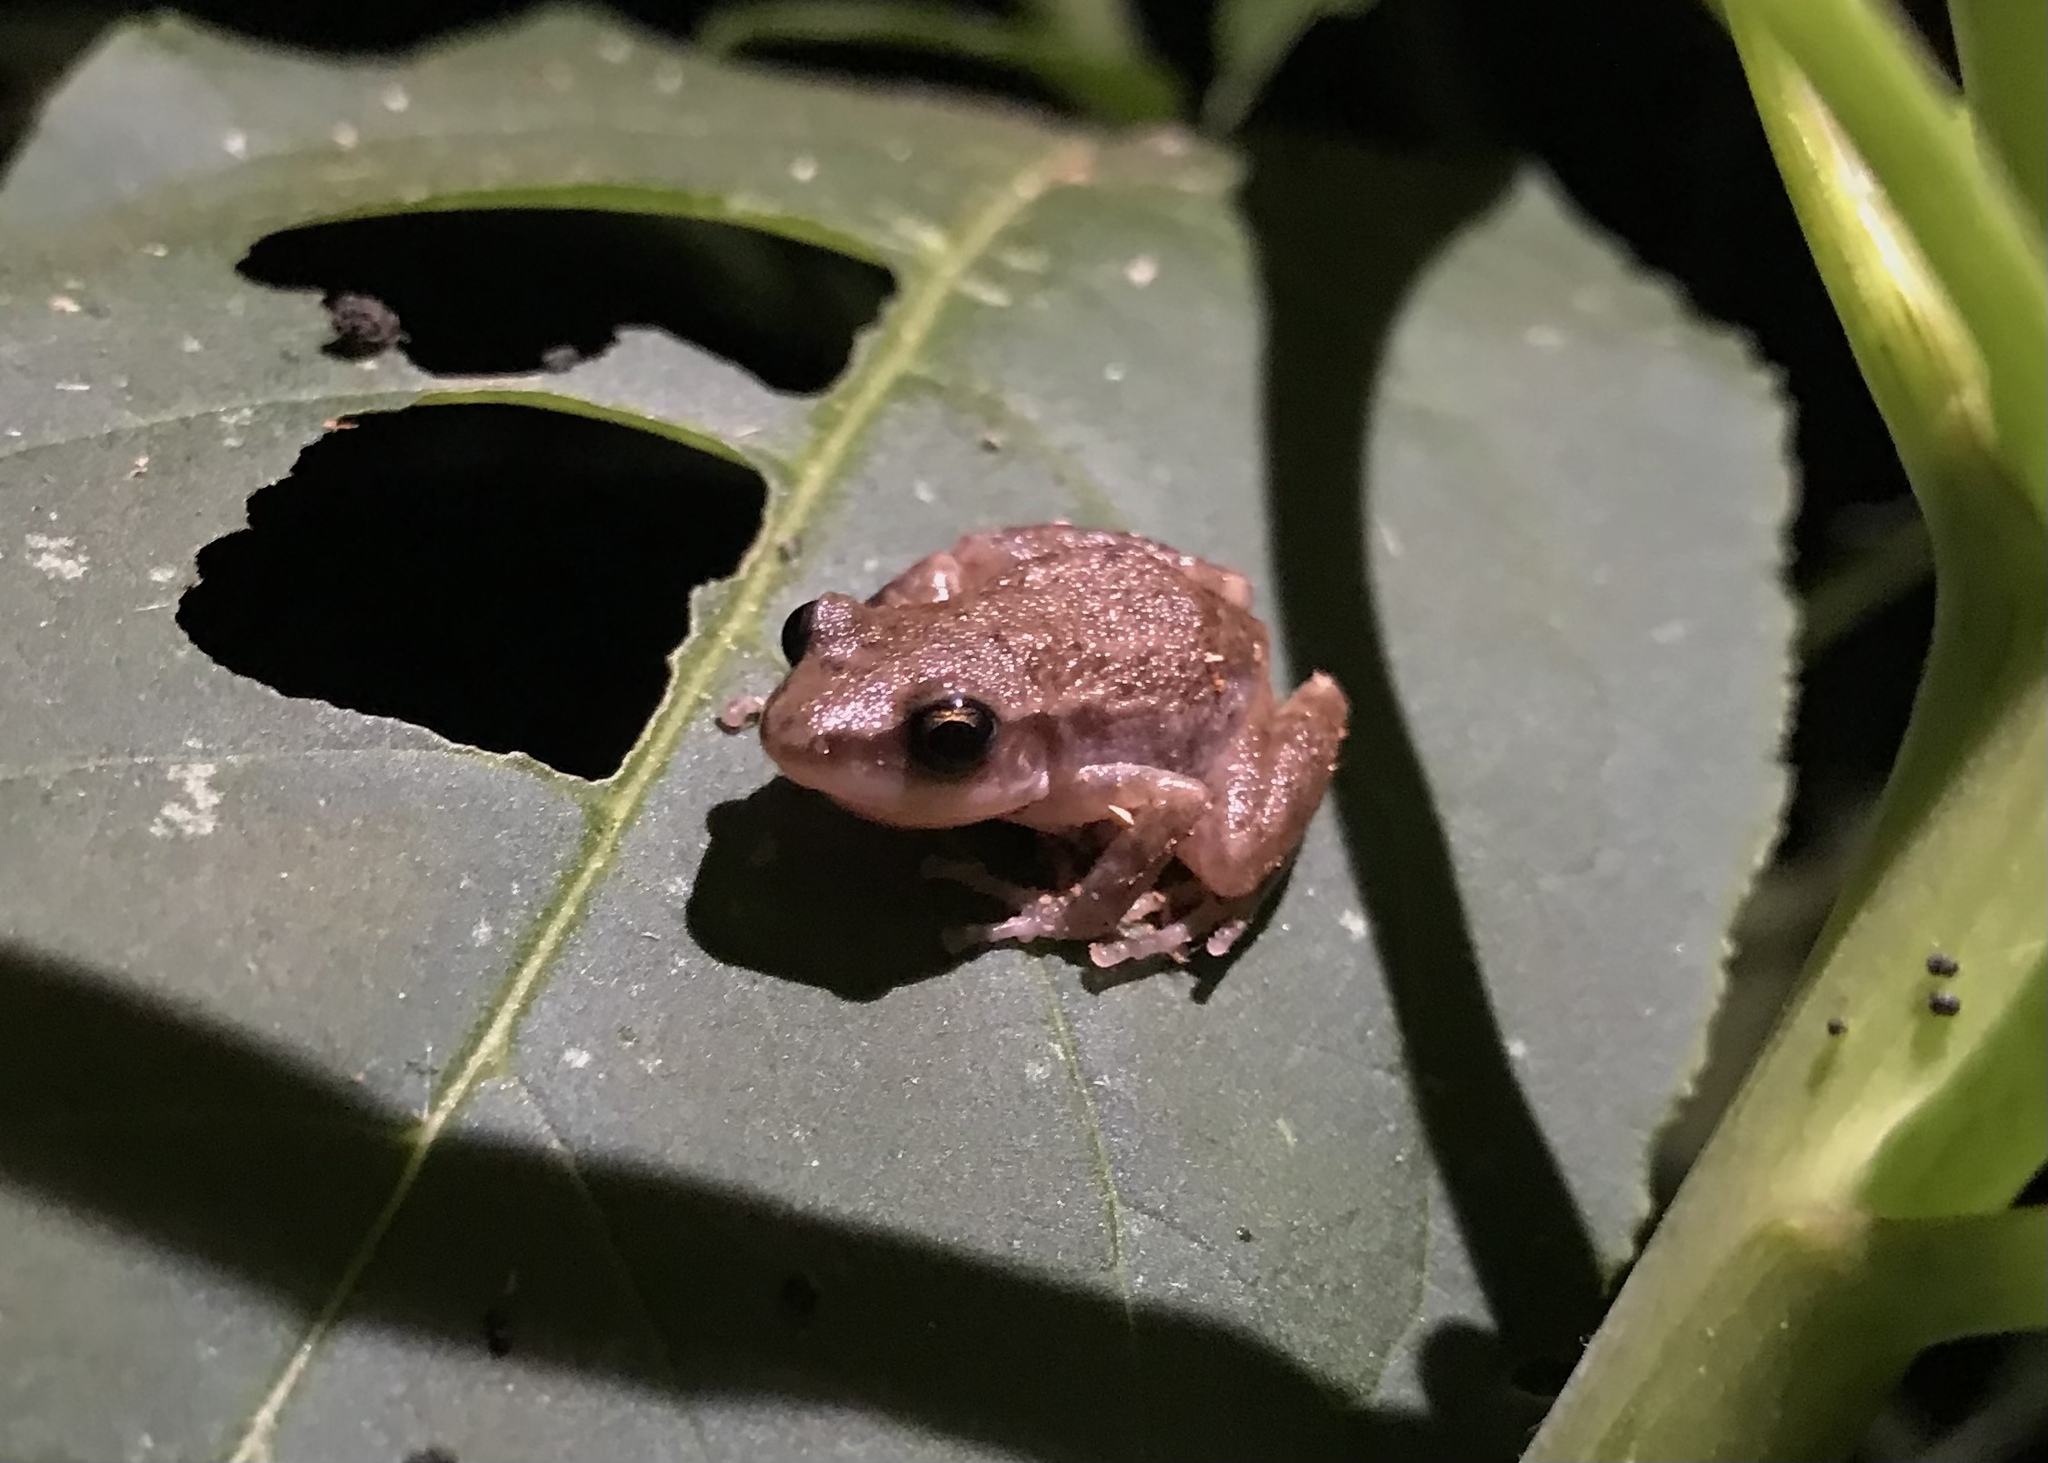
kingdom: Animalia
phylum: Chordata
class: Amphibia
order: Anura
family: Eleutherodactylidae
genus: Eleutherodactylus
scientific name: Eleutherodactylus campi
